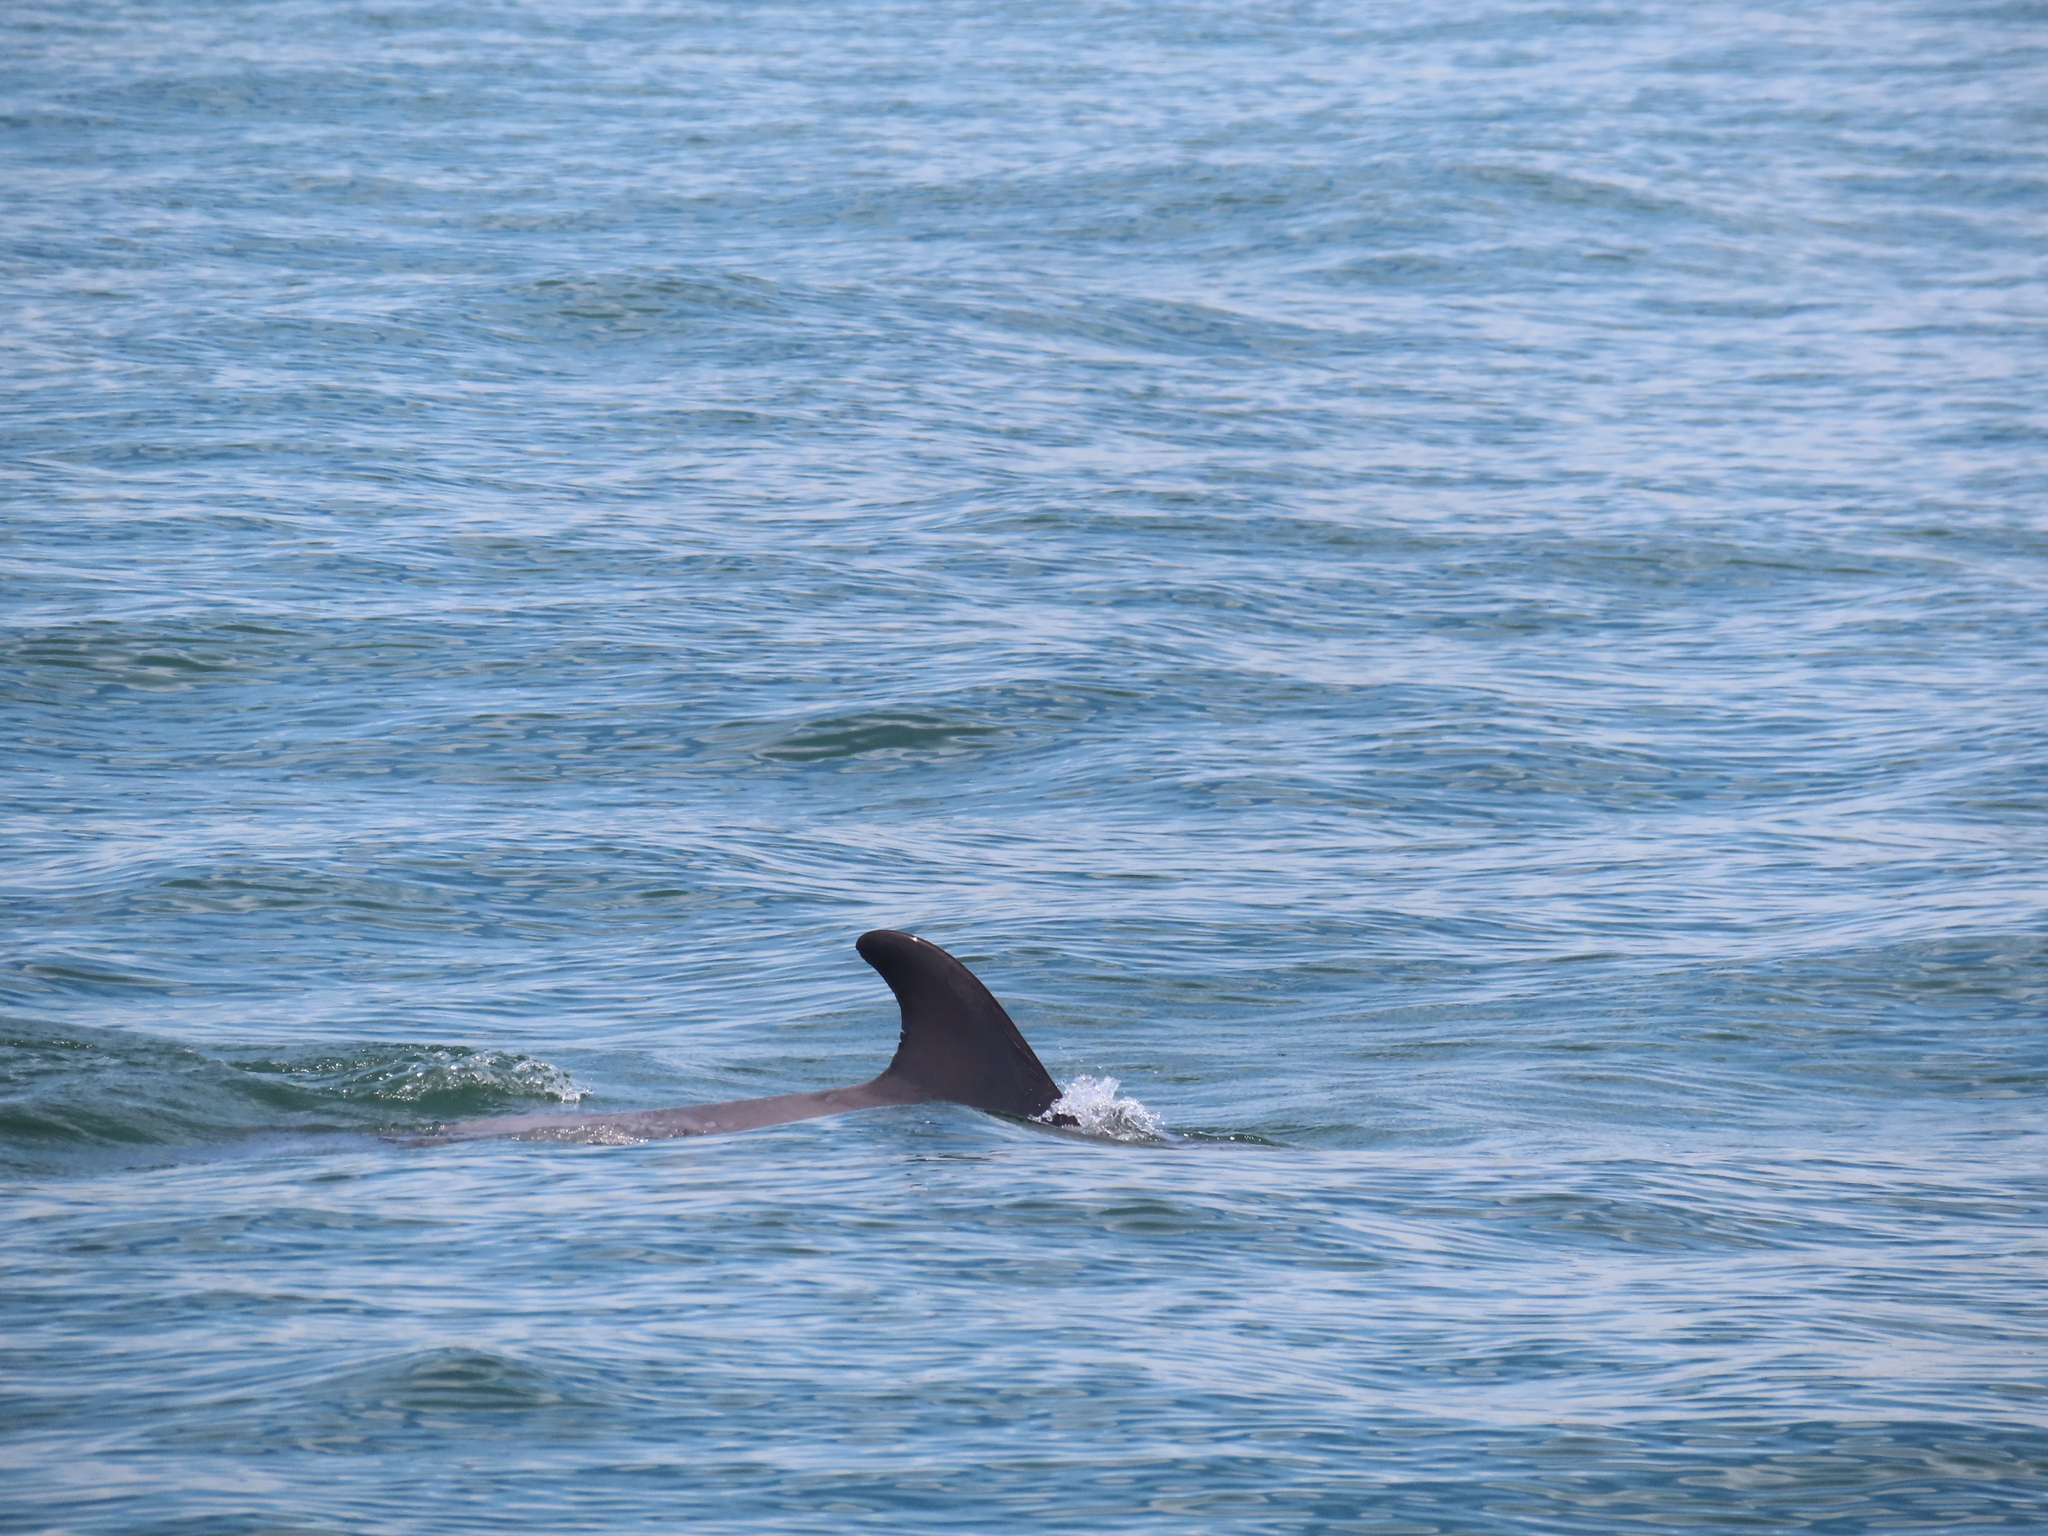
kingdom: Animalia
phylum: Chordata
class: Mammalia
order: Cetacea
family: Delphinidae
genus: Tursiops
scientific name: Tursiops truncatus
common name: Bottlenose dolphin
